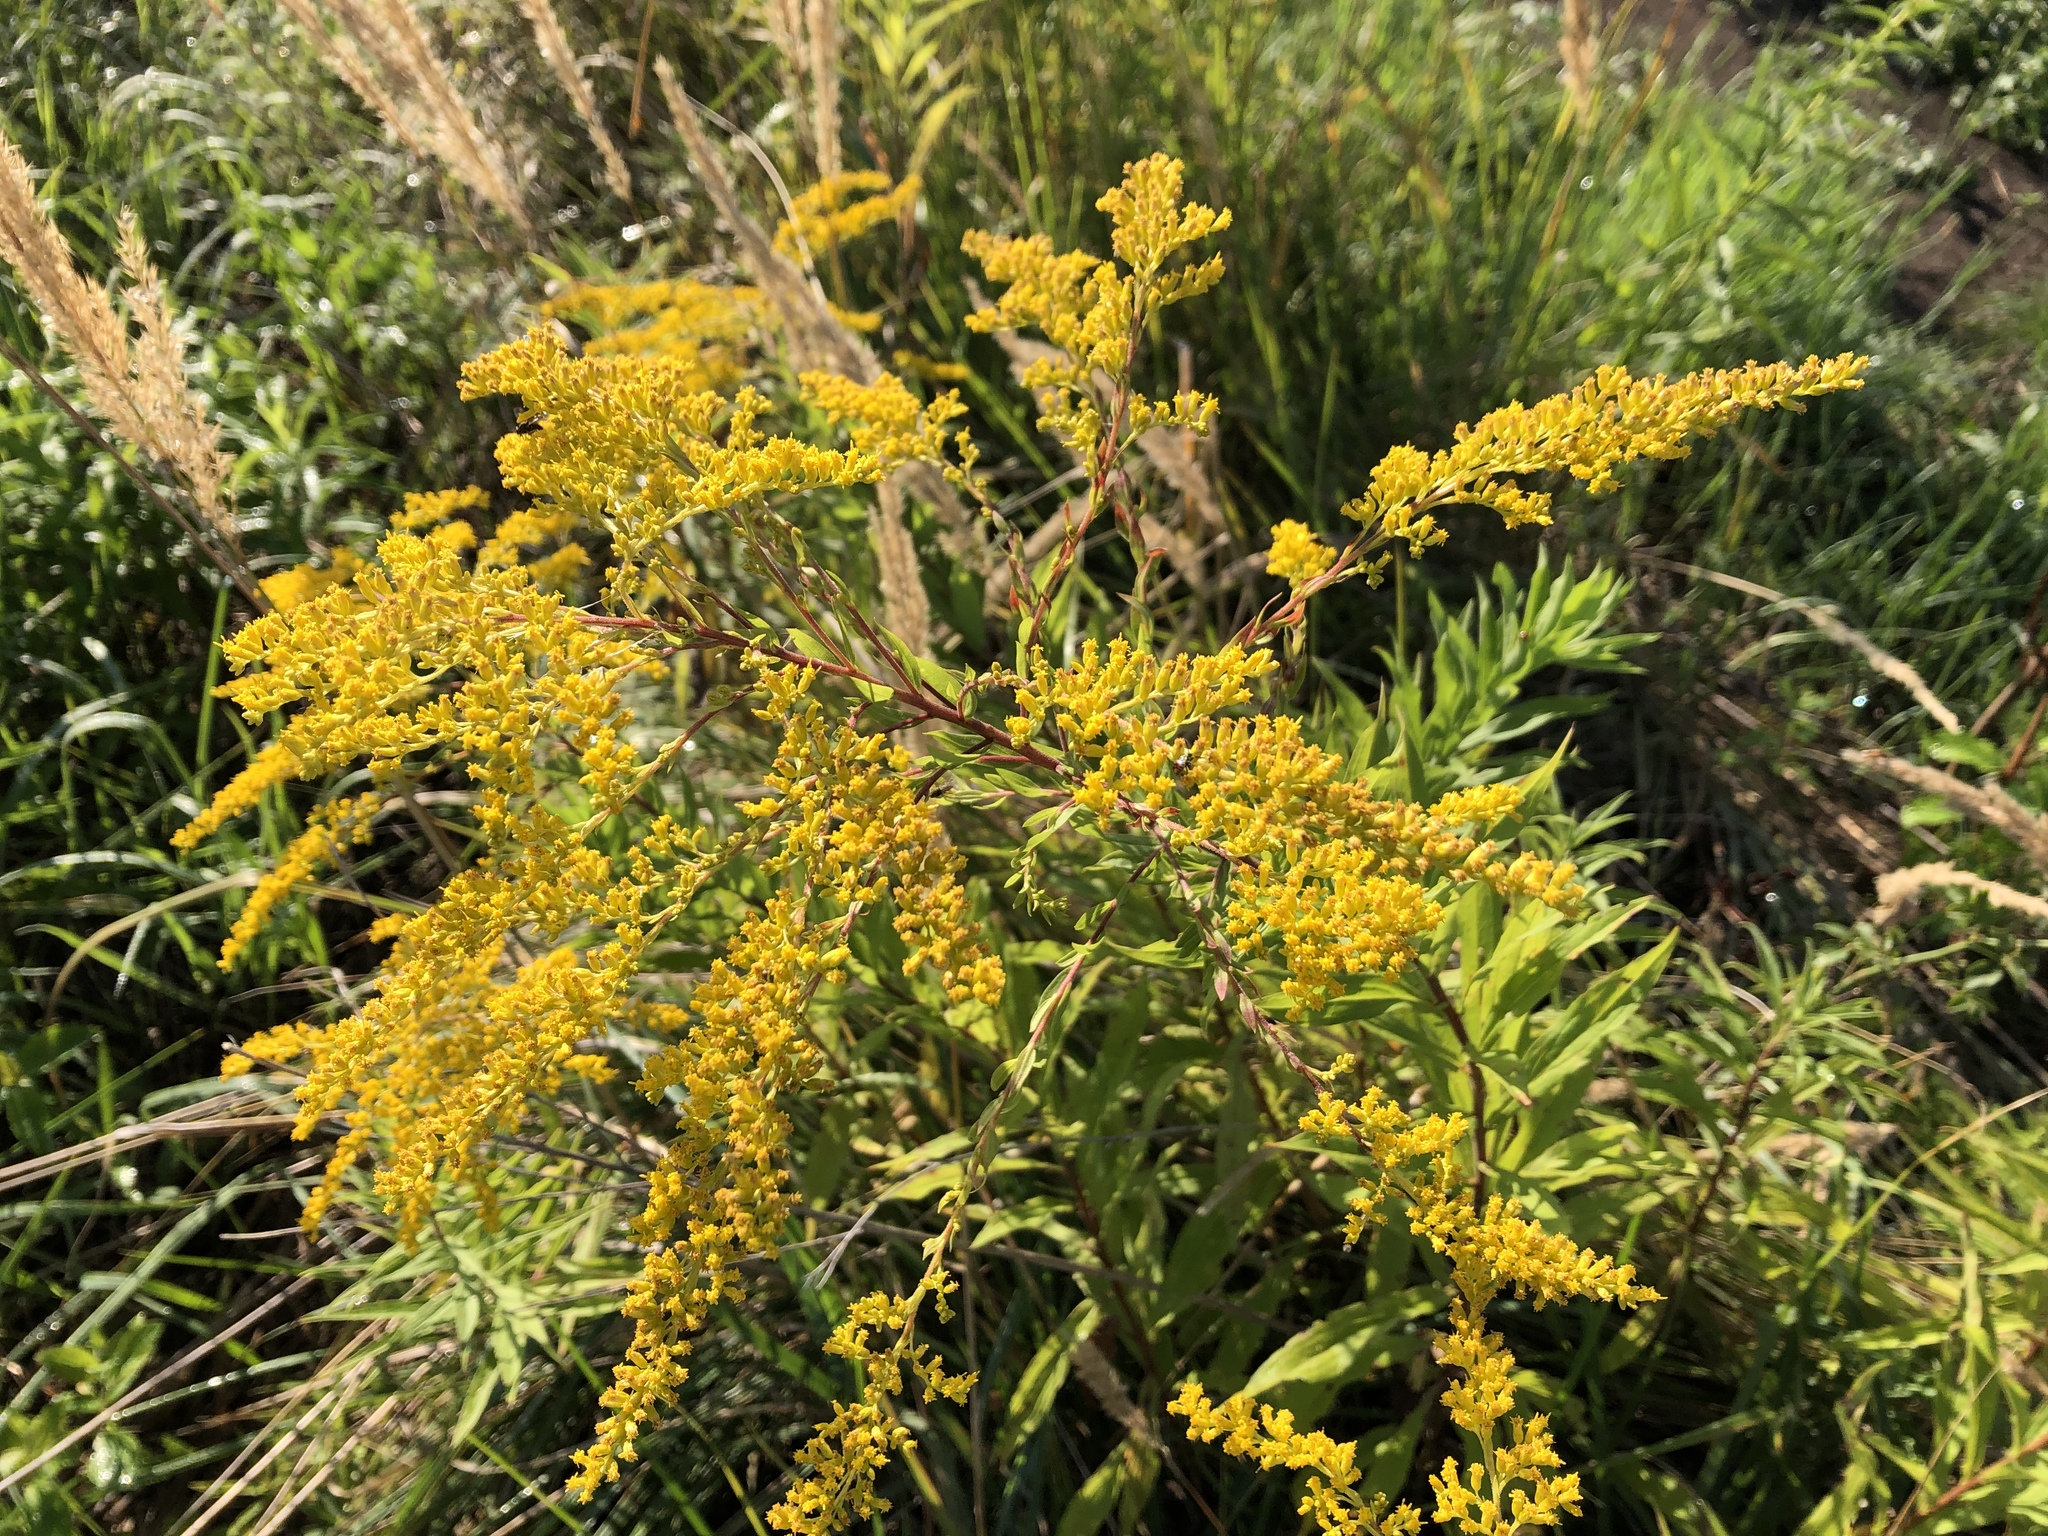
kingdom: Plantae
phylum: Tracheophyta
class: Magnoliopsida
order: Asterales
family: Asteraceae
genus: Solidago
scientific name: Solidago canadensis
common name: Canada goldenrod
